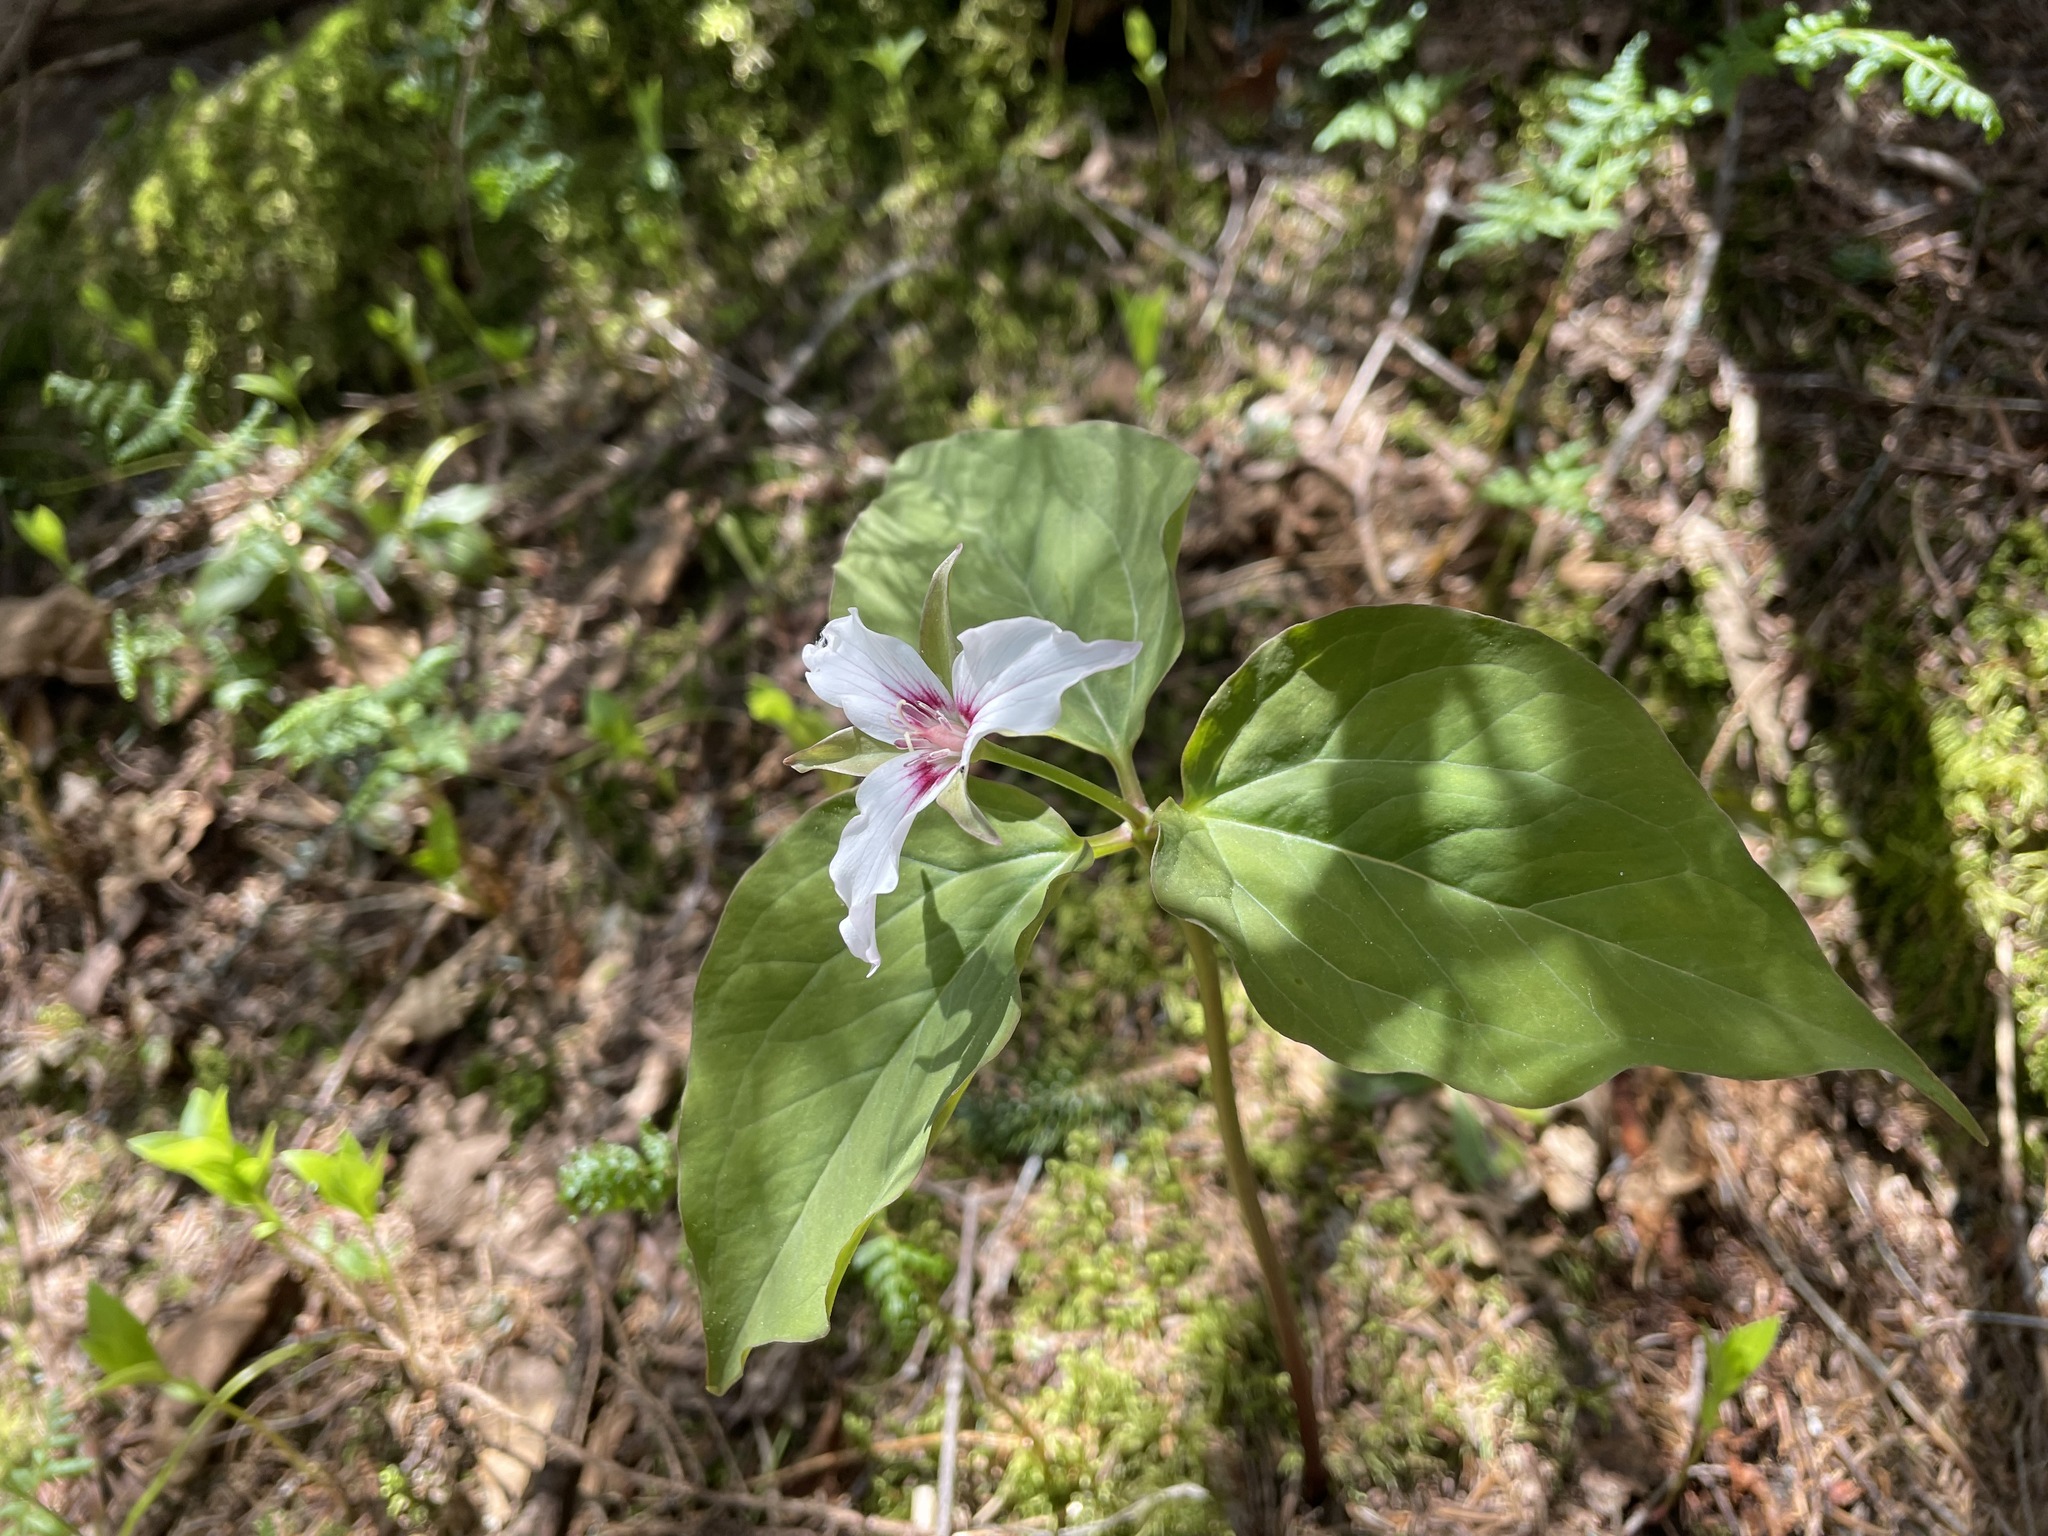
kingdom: Plantae
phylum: Tracheophyta
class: Liliopsida
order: Liliales
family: Melanthiaceae
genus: Trillium
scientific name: Trillium undulatum
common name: Paint trillium
